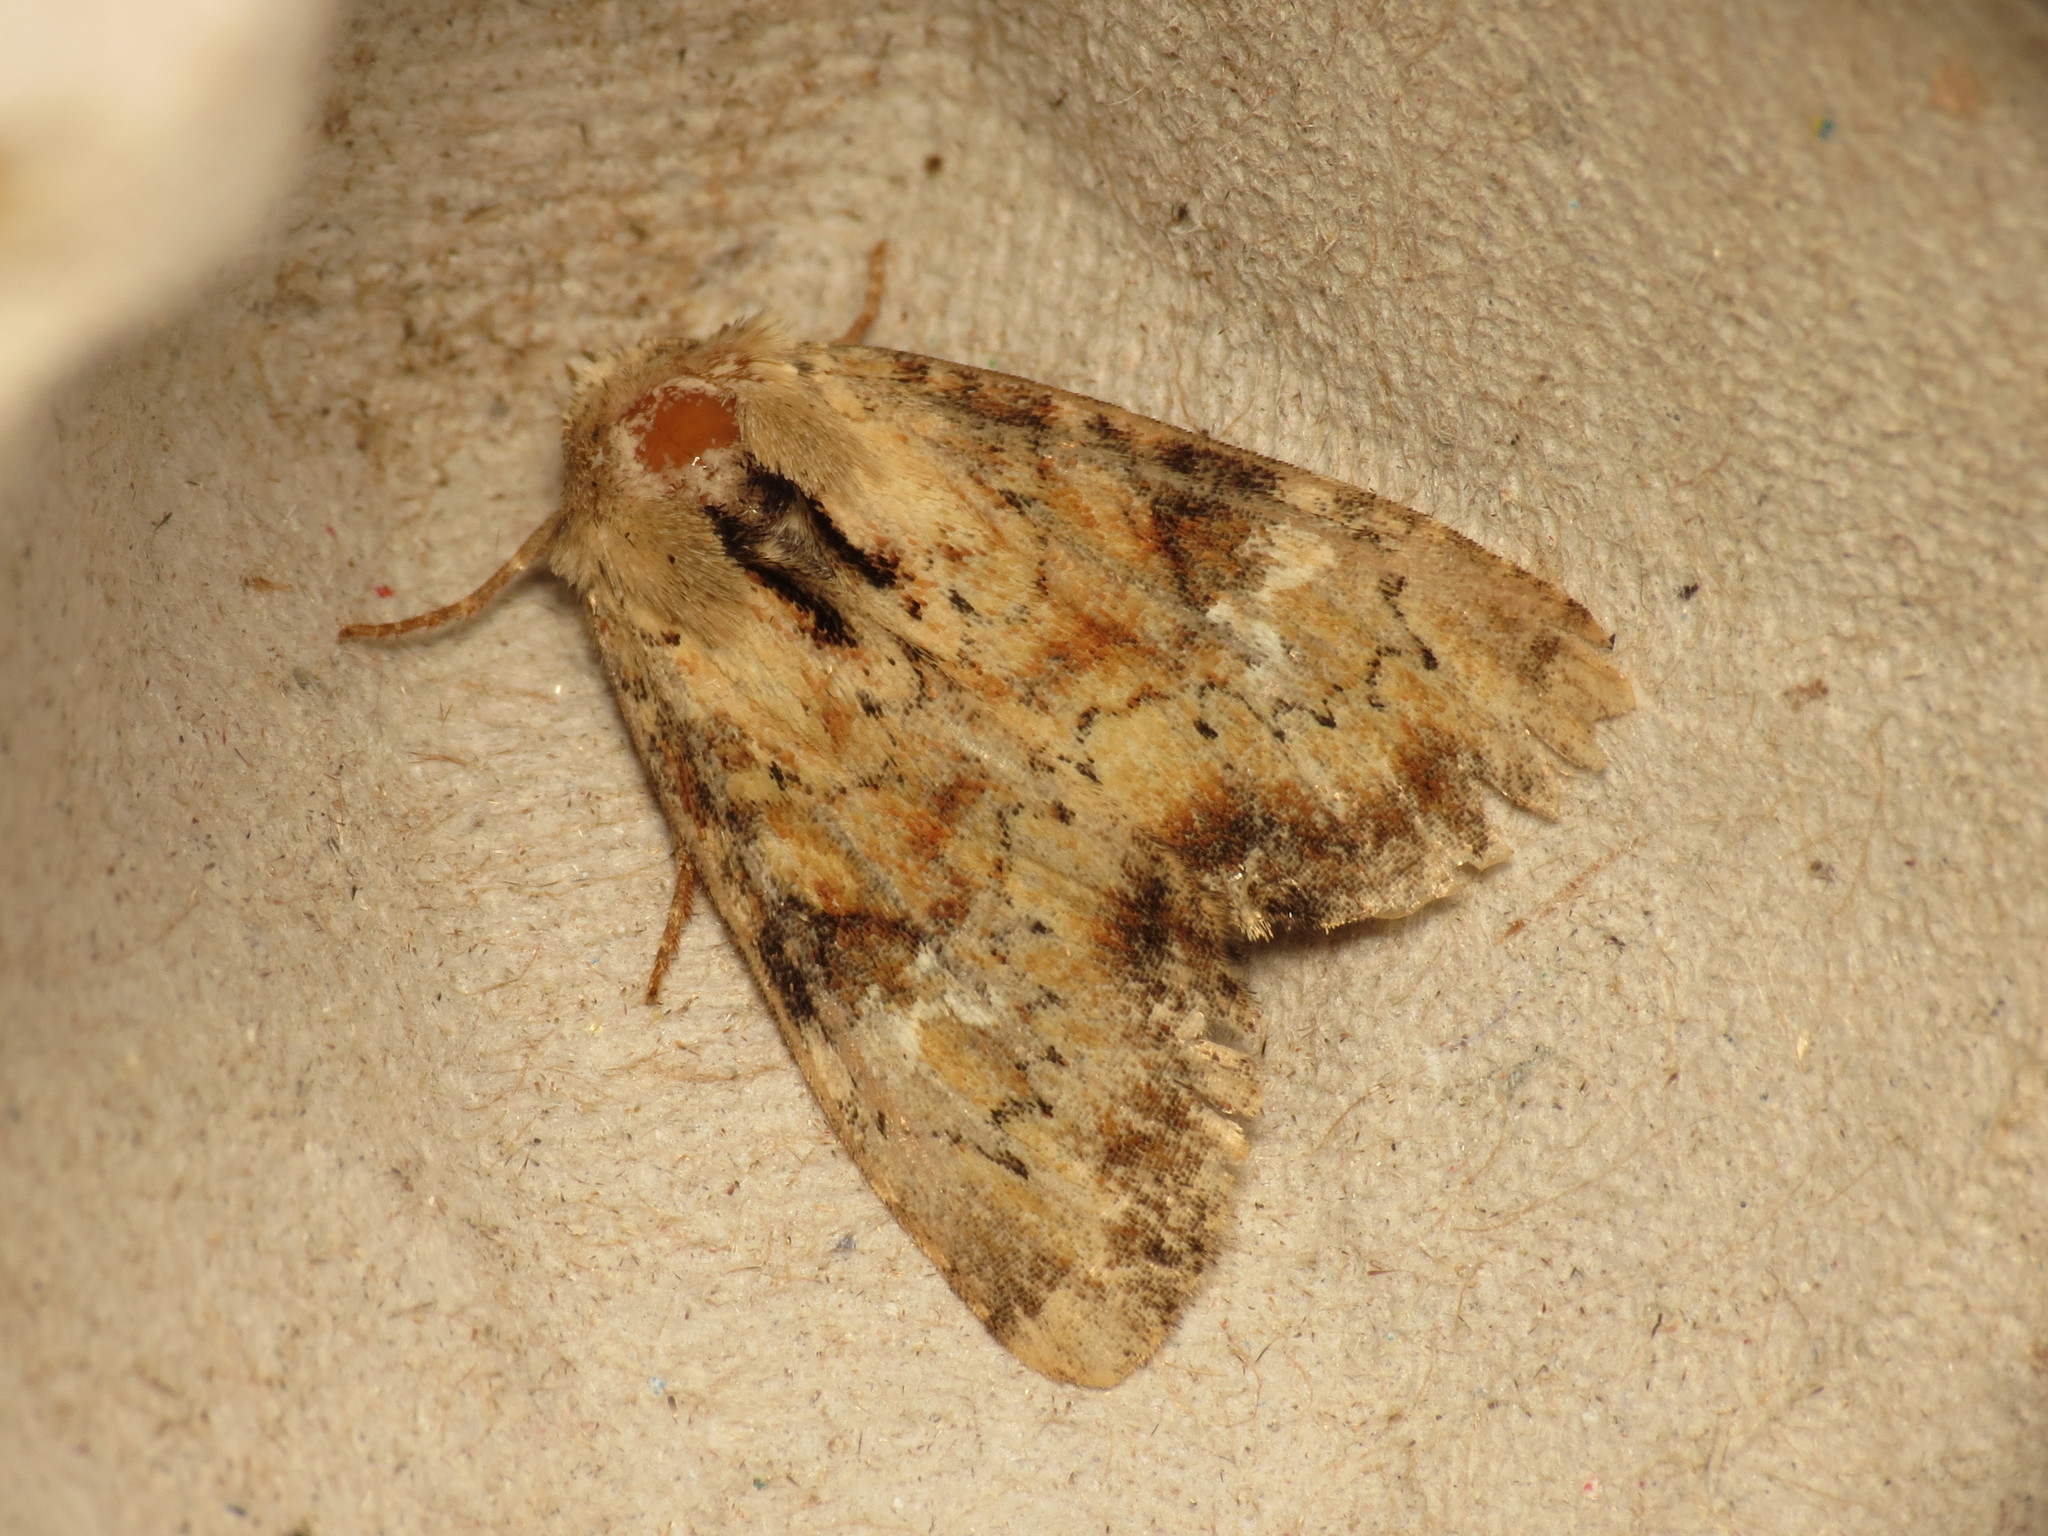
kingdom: Animalia
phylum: Arthropoda
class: Insecta
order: Lepidoptera
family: Noctuidae
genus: Loscopia
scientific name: Loscopia scolopacina
